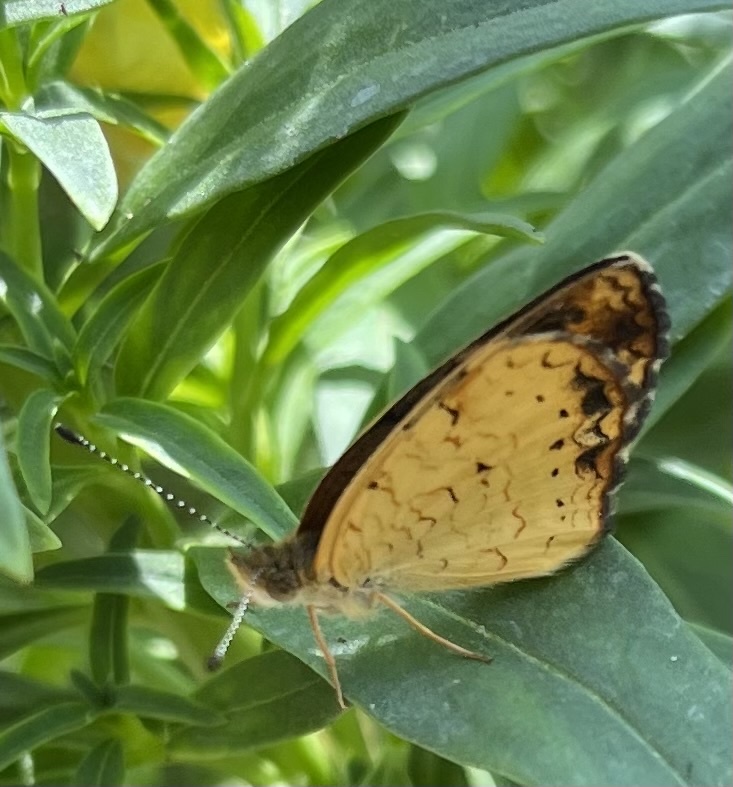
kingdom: Animalia
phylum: Arthropoda
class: Insecta
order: Lepidoptera
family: Nymphalidae
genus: Phyciodes
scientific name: Phyciodes tharos
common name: Pearl crescent
